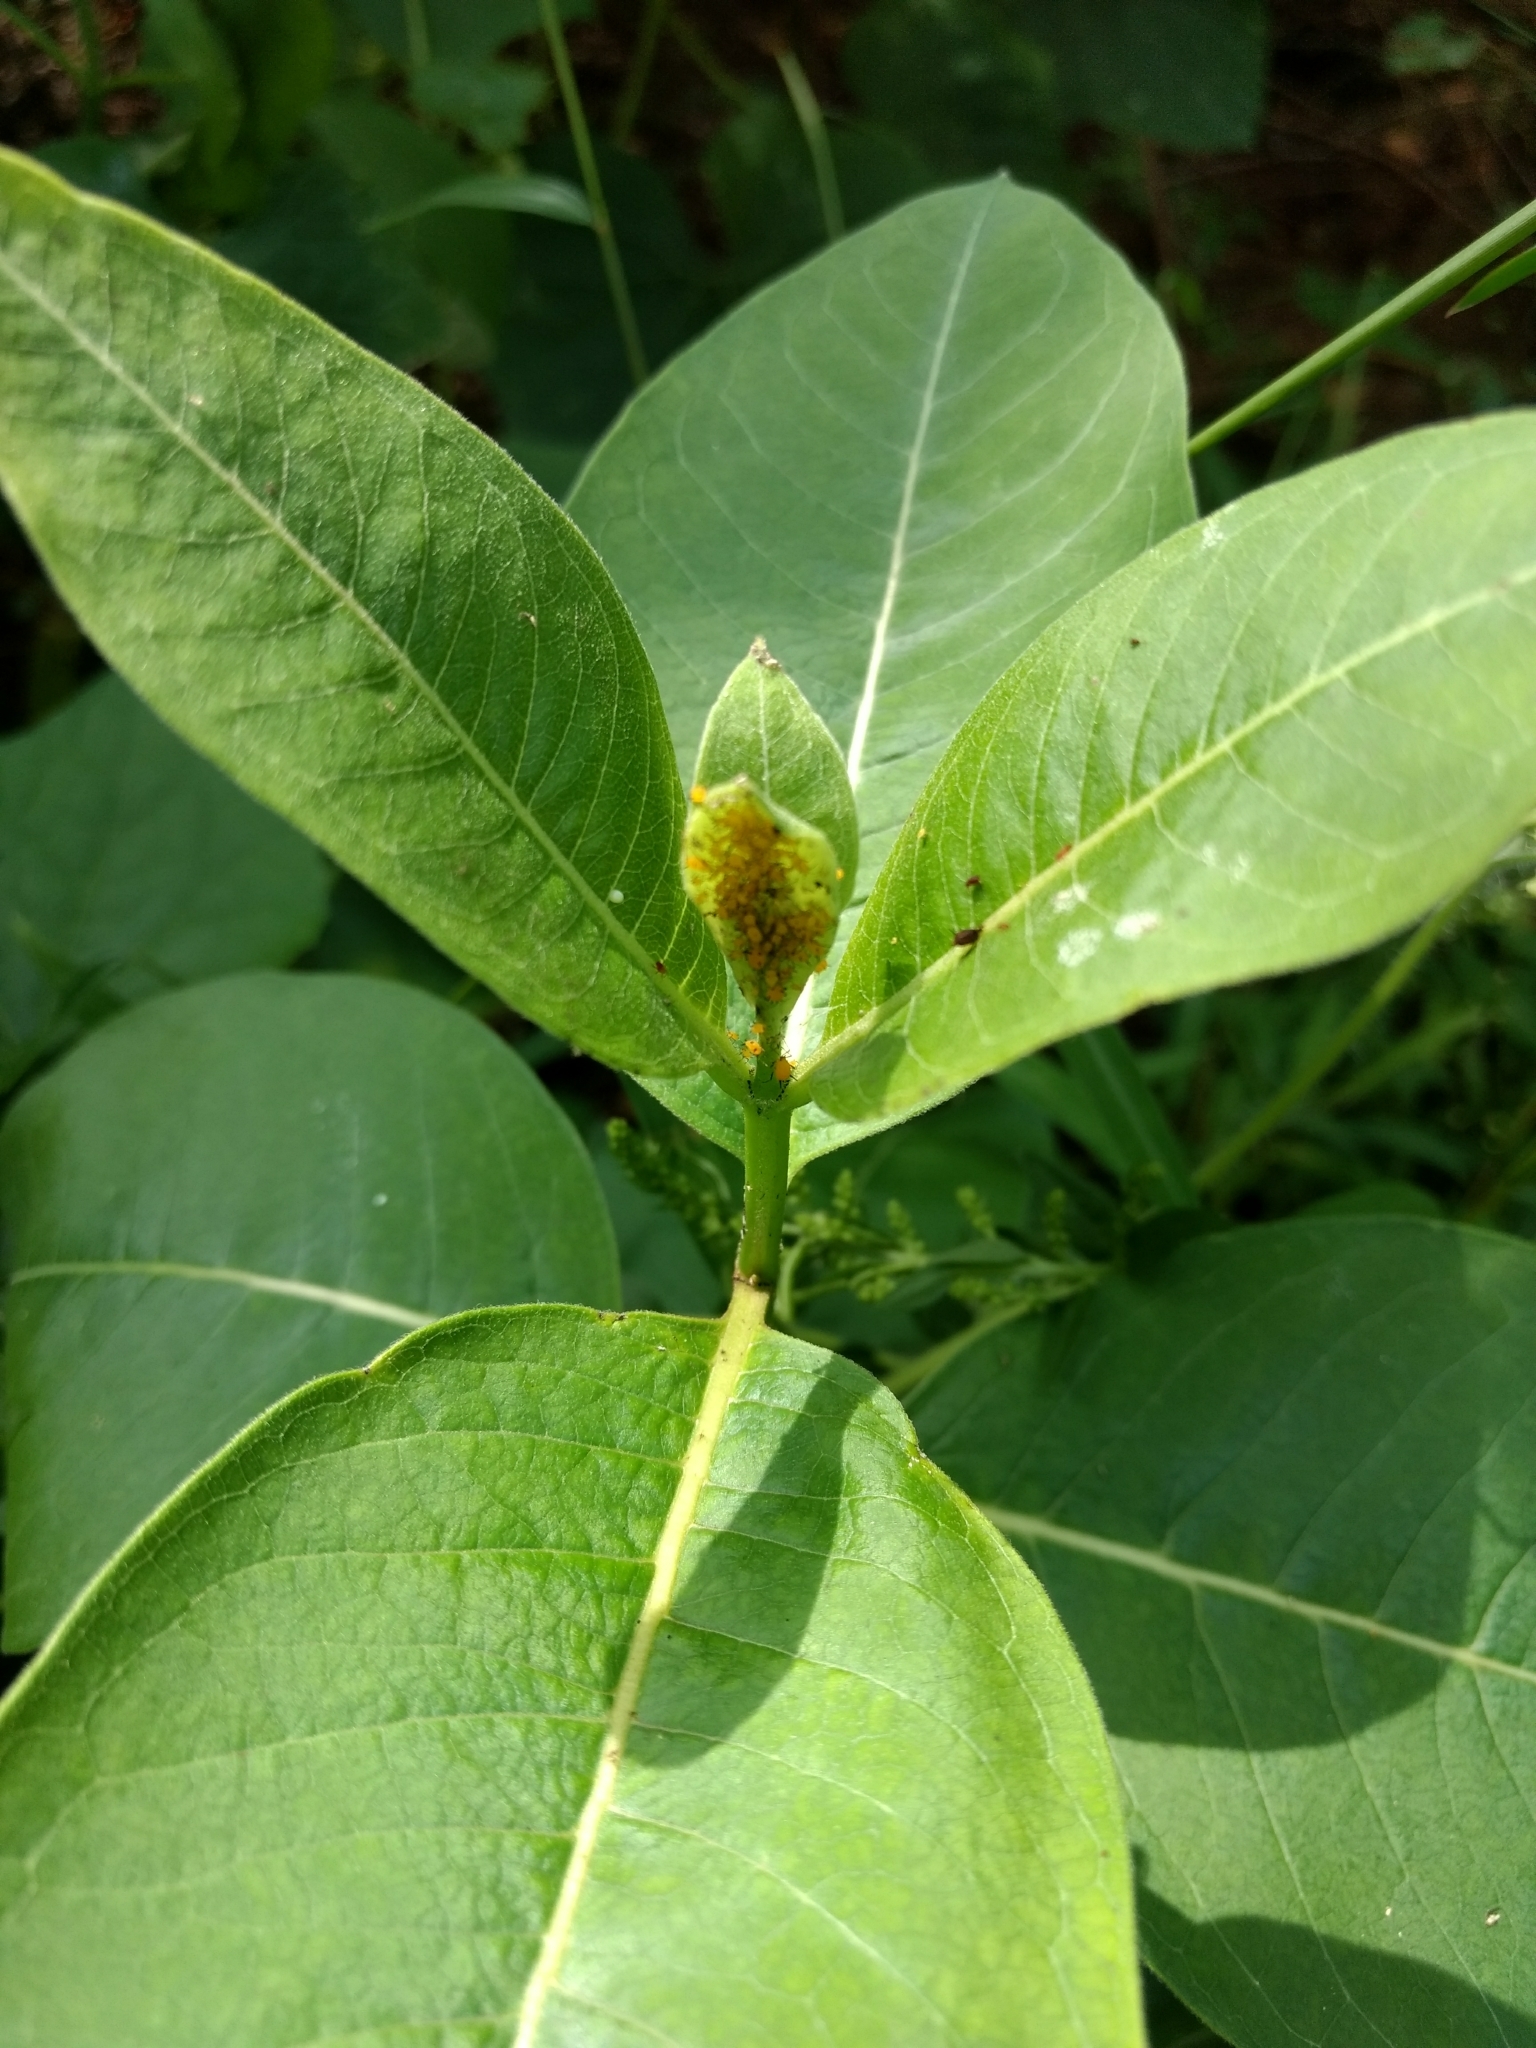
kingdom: Animalia
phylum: Arthropoda
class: Insecta
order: Hemiptera
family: Aphididae
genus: Aphis
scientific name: Aphis nerii
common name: Oleander aphid
